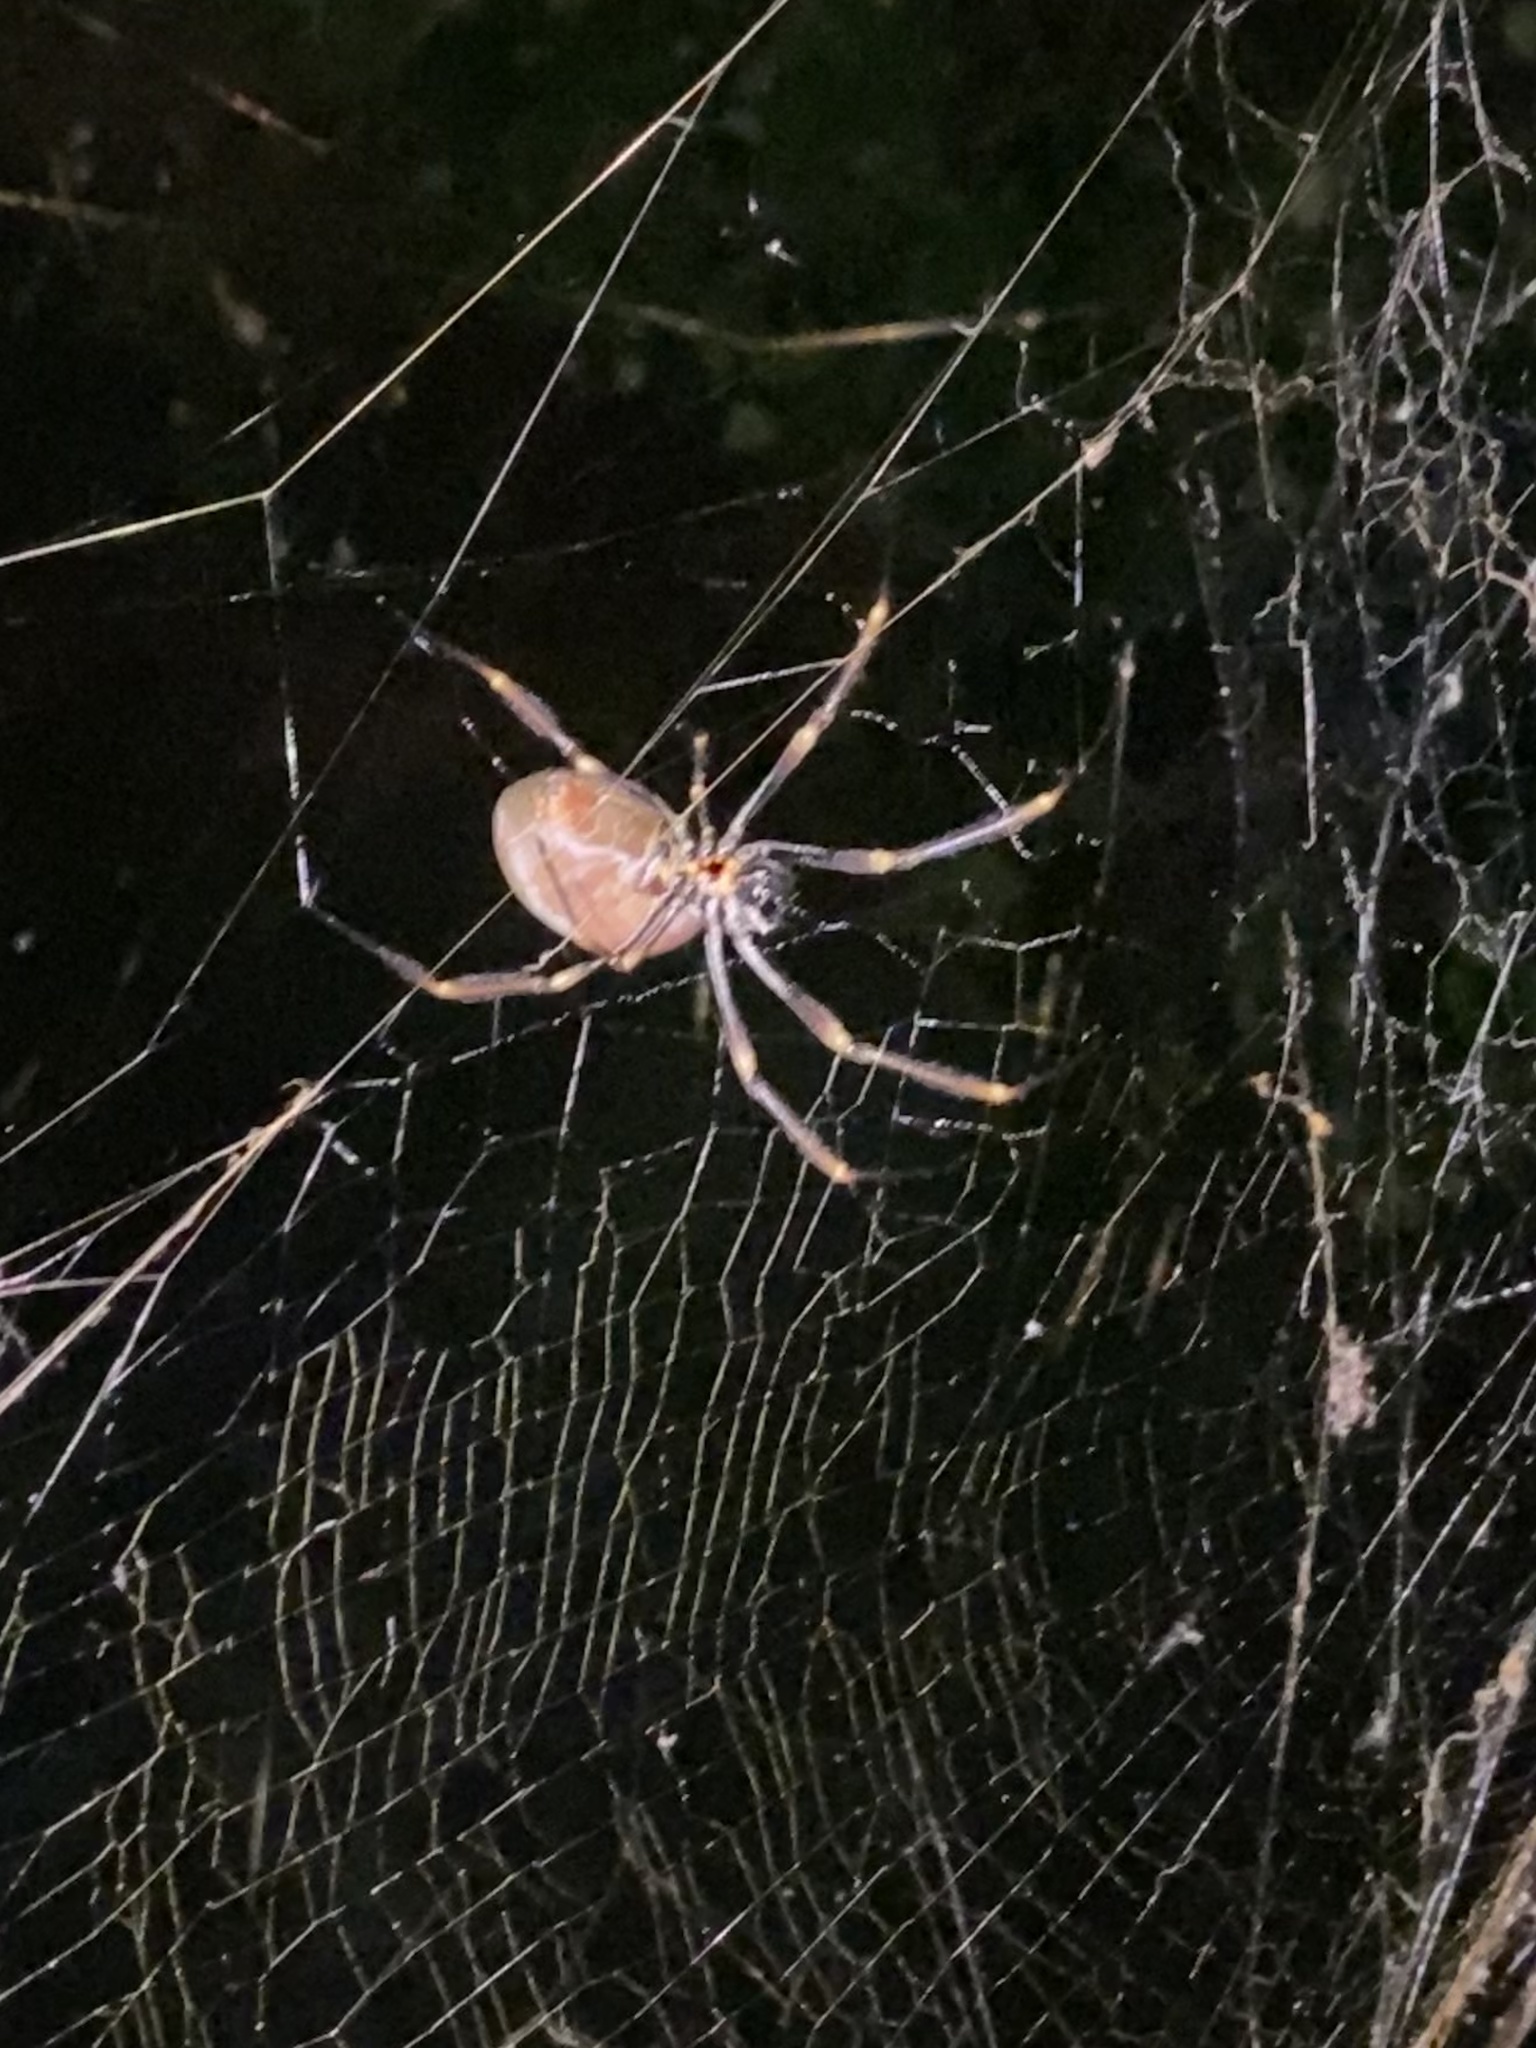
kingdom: Animalia
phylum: Arthropoda
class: Arachnida
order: Araneae
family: Araneidae
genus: Trichonephila
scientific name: Trichonephila plumipes
